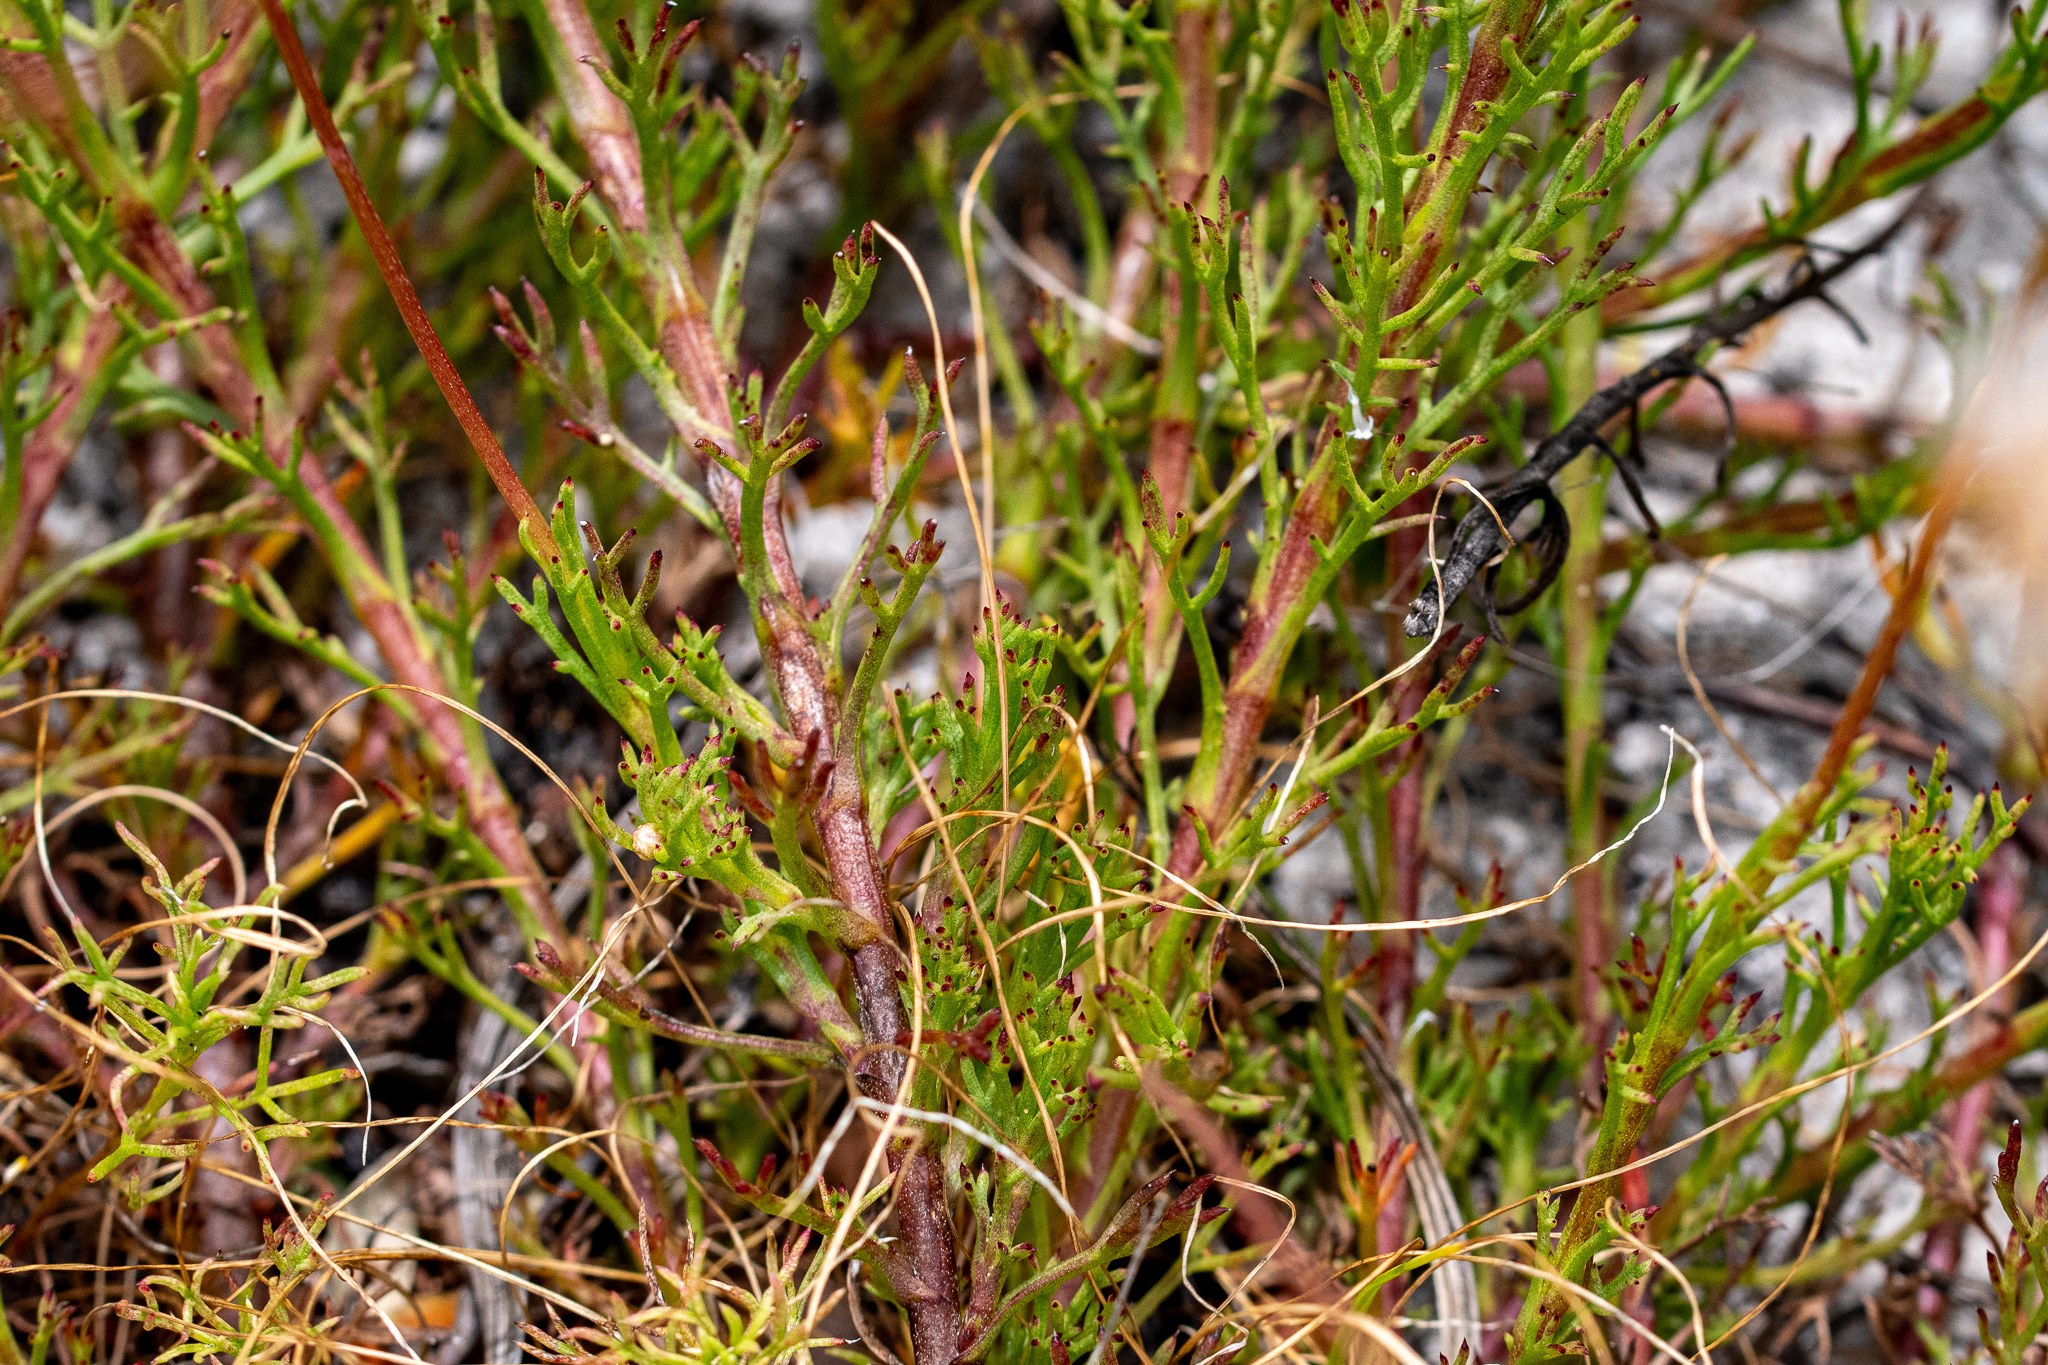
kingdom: Plantae
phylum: Tracheophyta
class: Magnoliopsida
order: Asterales
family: Asteraceae
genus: Ursinia
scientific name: Ursinia paleacea
